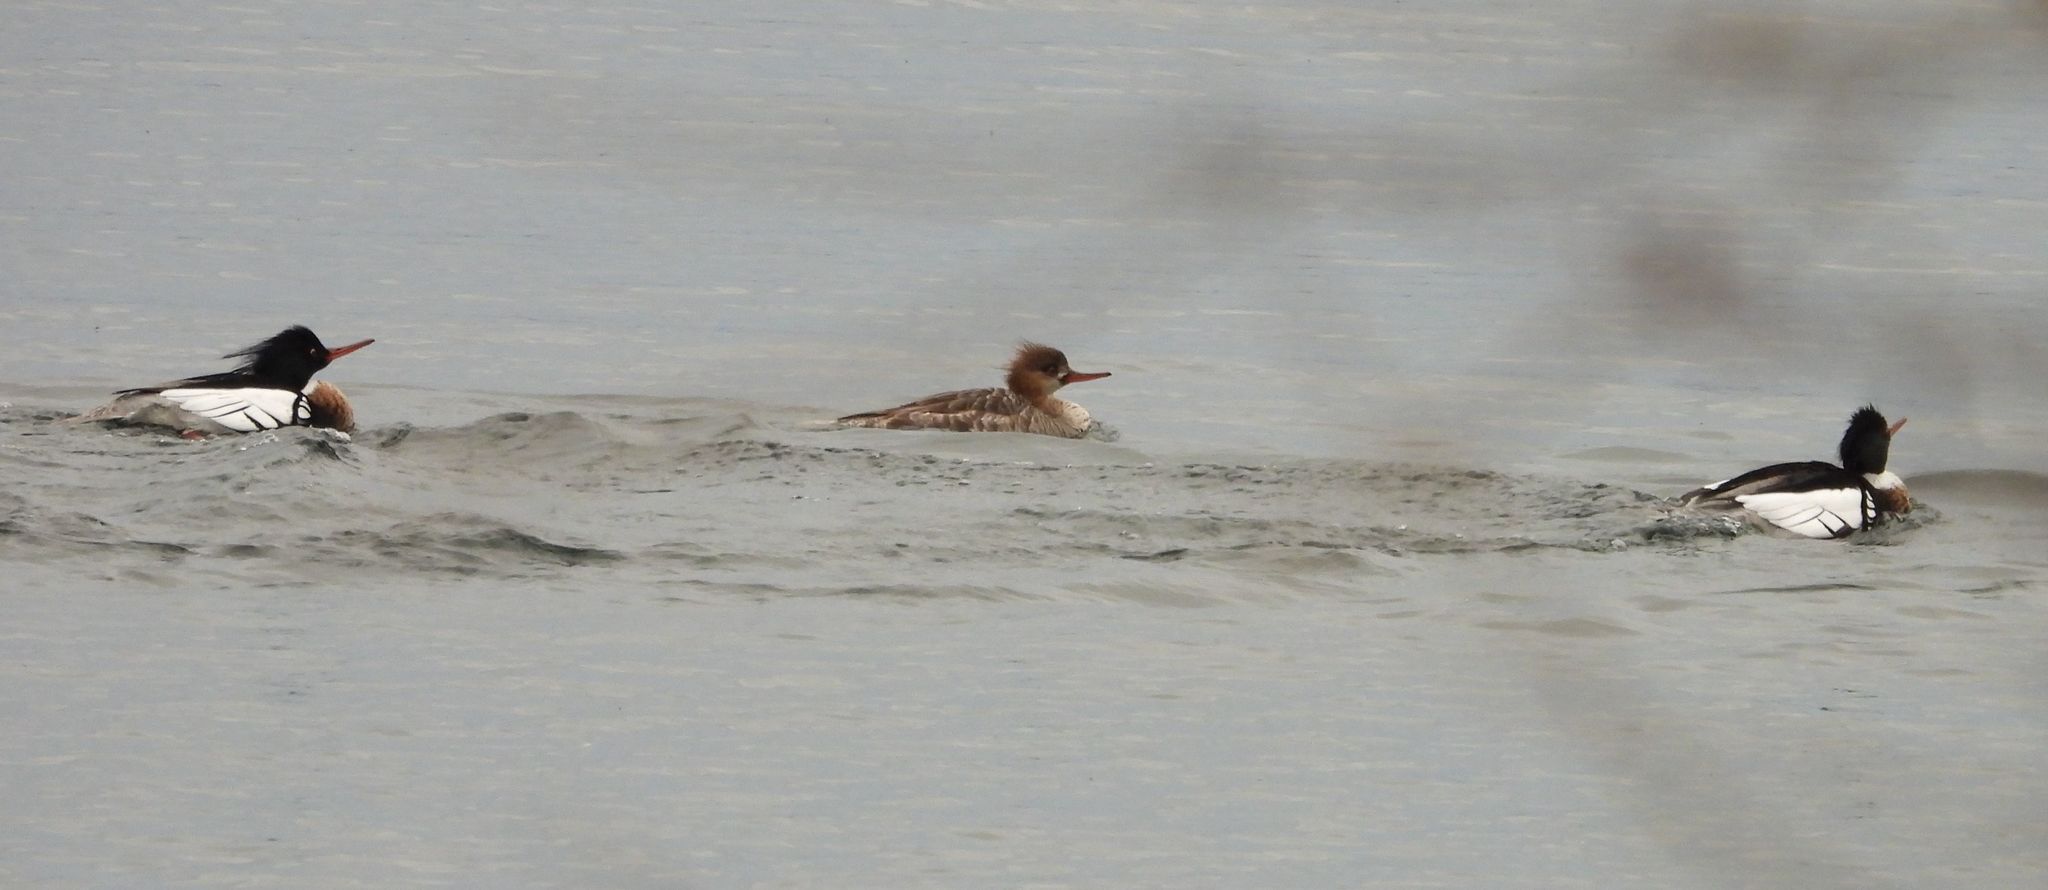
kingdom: Animalia
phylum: Chordata
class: Aves
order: Anseriformes
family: Anatidae
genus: Mergus
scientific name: Mergus serrator
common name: Red-breasted merganser
